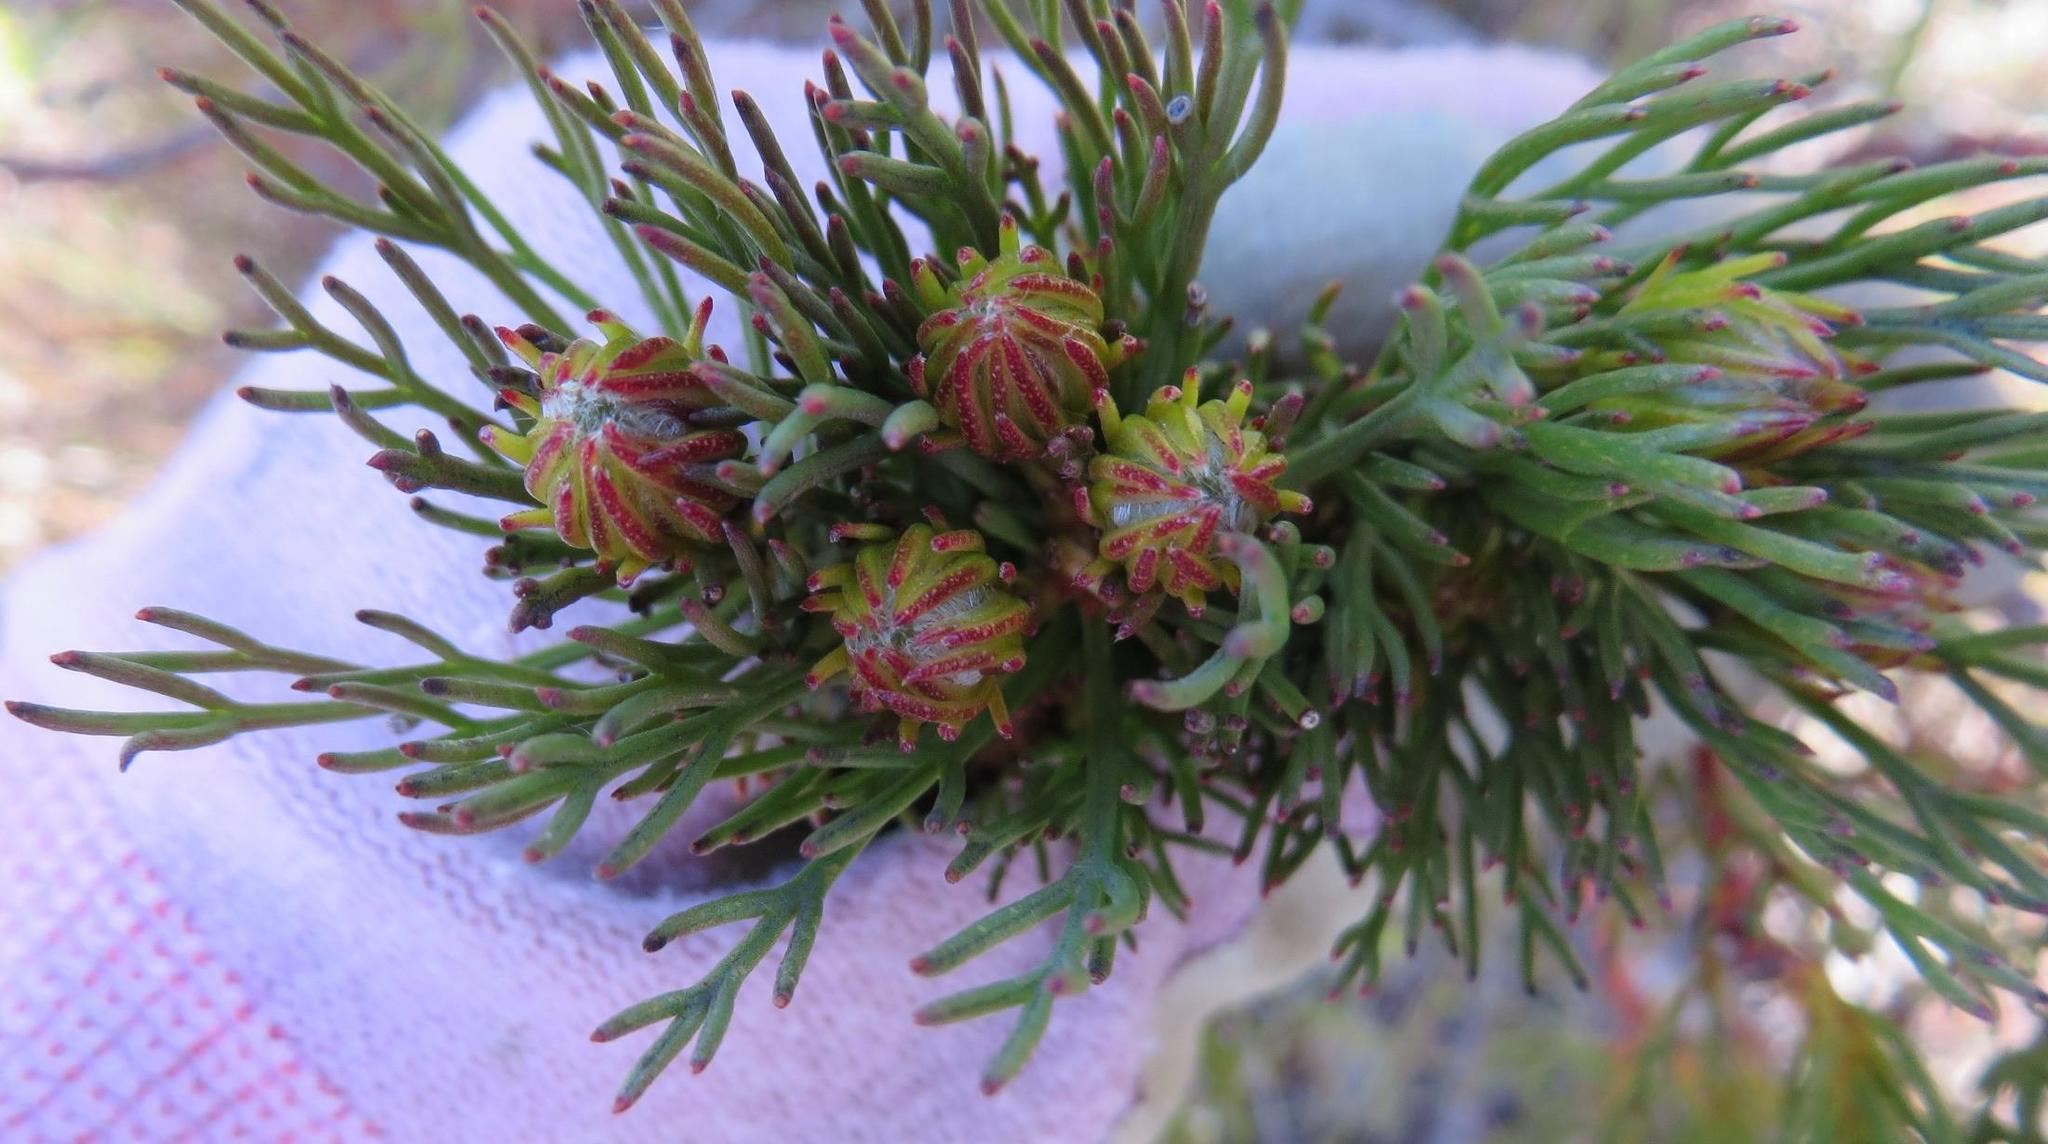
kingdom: Plantae
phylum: Tracheophyta
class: Magnoliopsida
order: Proteales
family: Proteaceae
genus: Serruria
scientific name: Serruria phylicoides
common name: Bearded spiderhead
